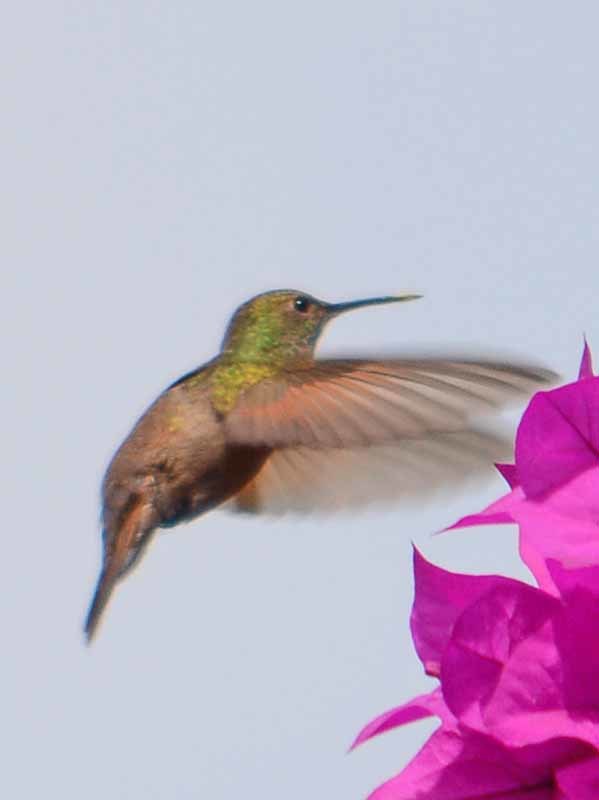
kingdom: Animalia
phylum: Chordata
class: Aves
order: Apodiformes
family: Trochilidae
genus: Saucerottia
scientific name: Saucerottia beryllina
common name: Berylline hummingbird
